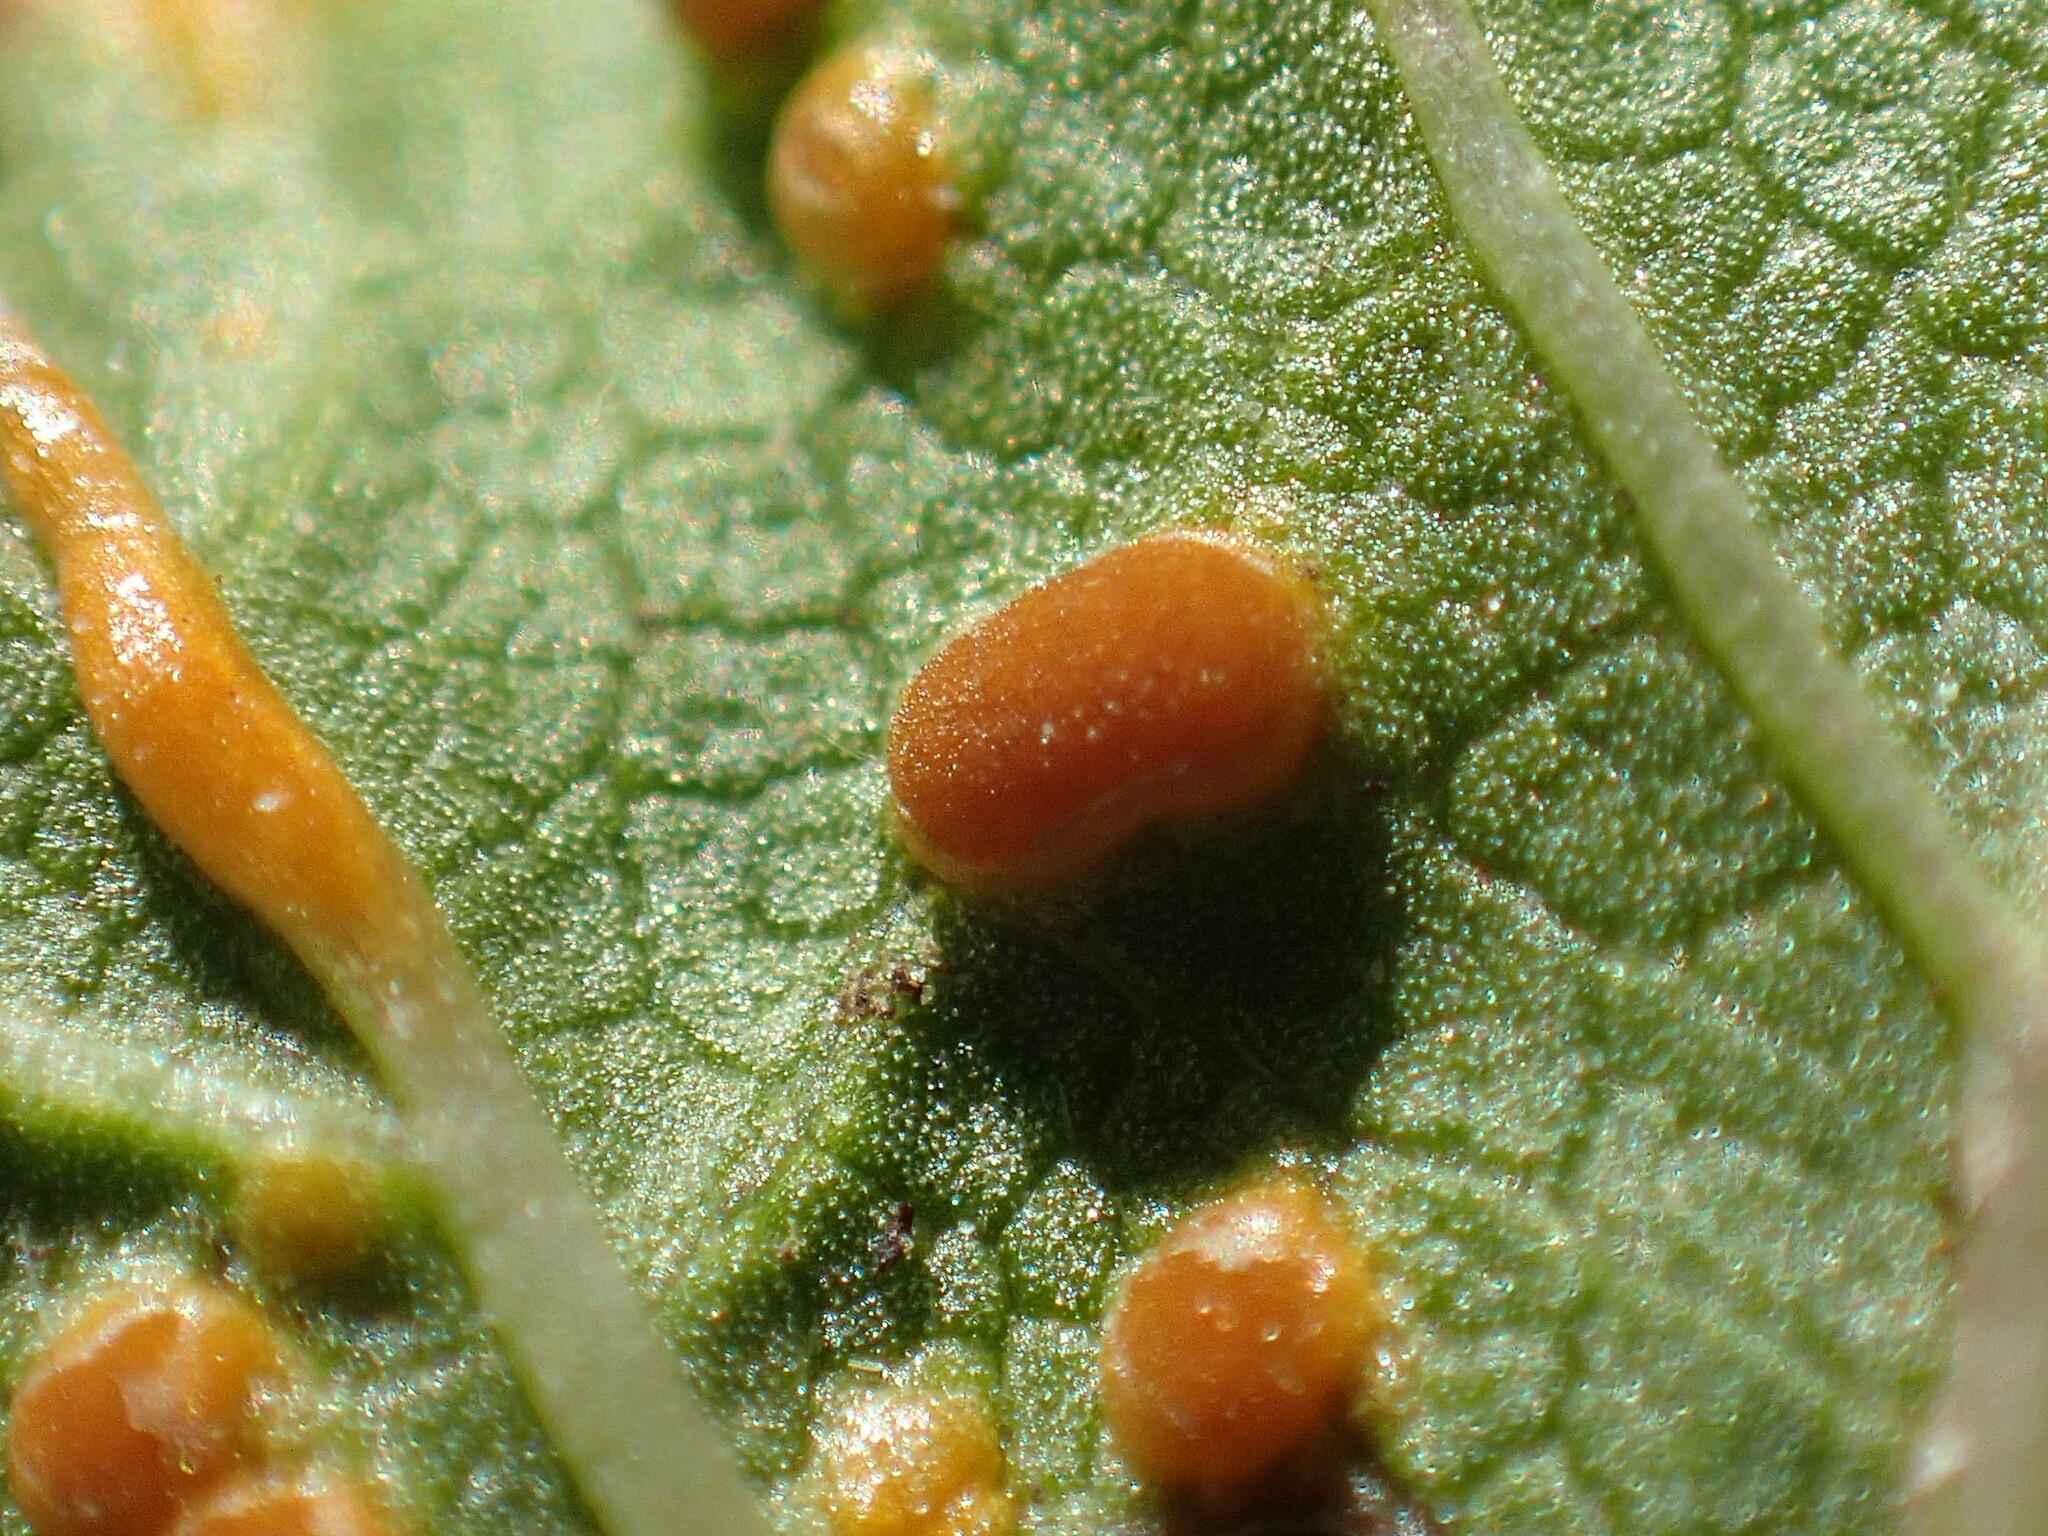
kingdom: Fungi
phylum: Basidiomycota
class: Pucciniomycetes
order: Pucciniales
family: Pucciniaceae
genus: Puccinia
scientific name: Puccinia malvacearum
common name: Hollyhock rust
